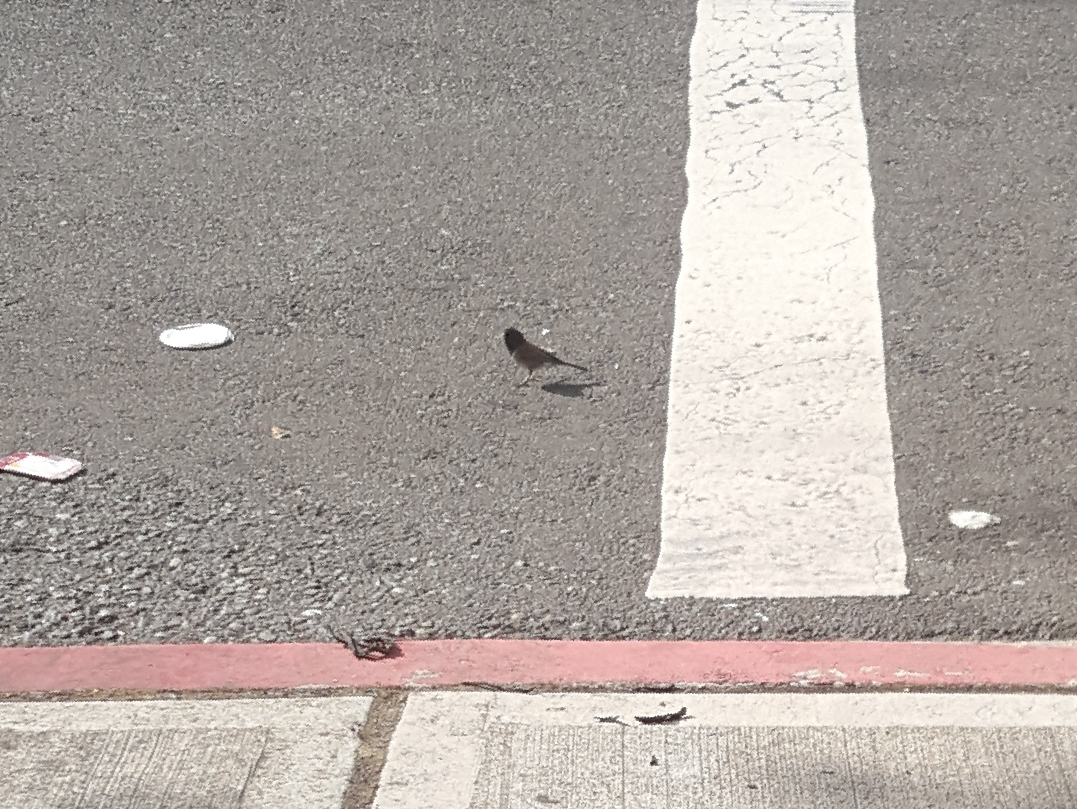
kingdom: Animalia
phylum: Chordata
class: Aves
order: Passeriformes
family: Passerellidae
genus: Junco
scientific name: Junco hyemalis
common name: Dark-eyed junco
